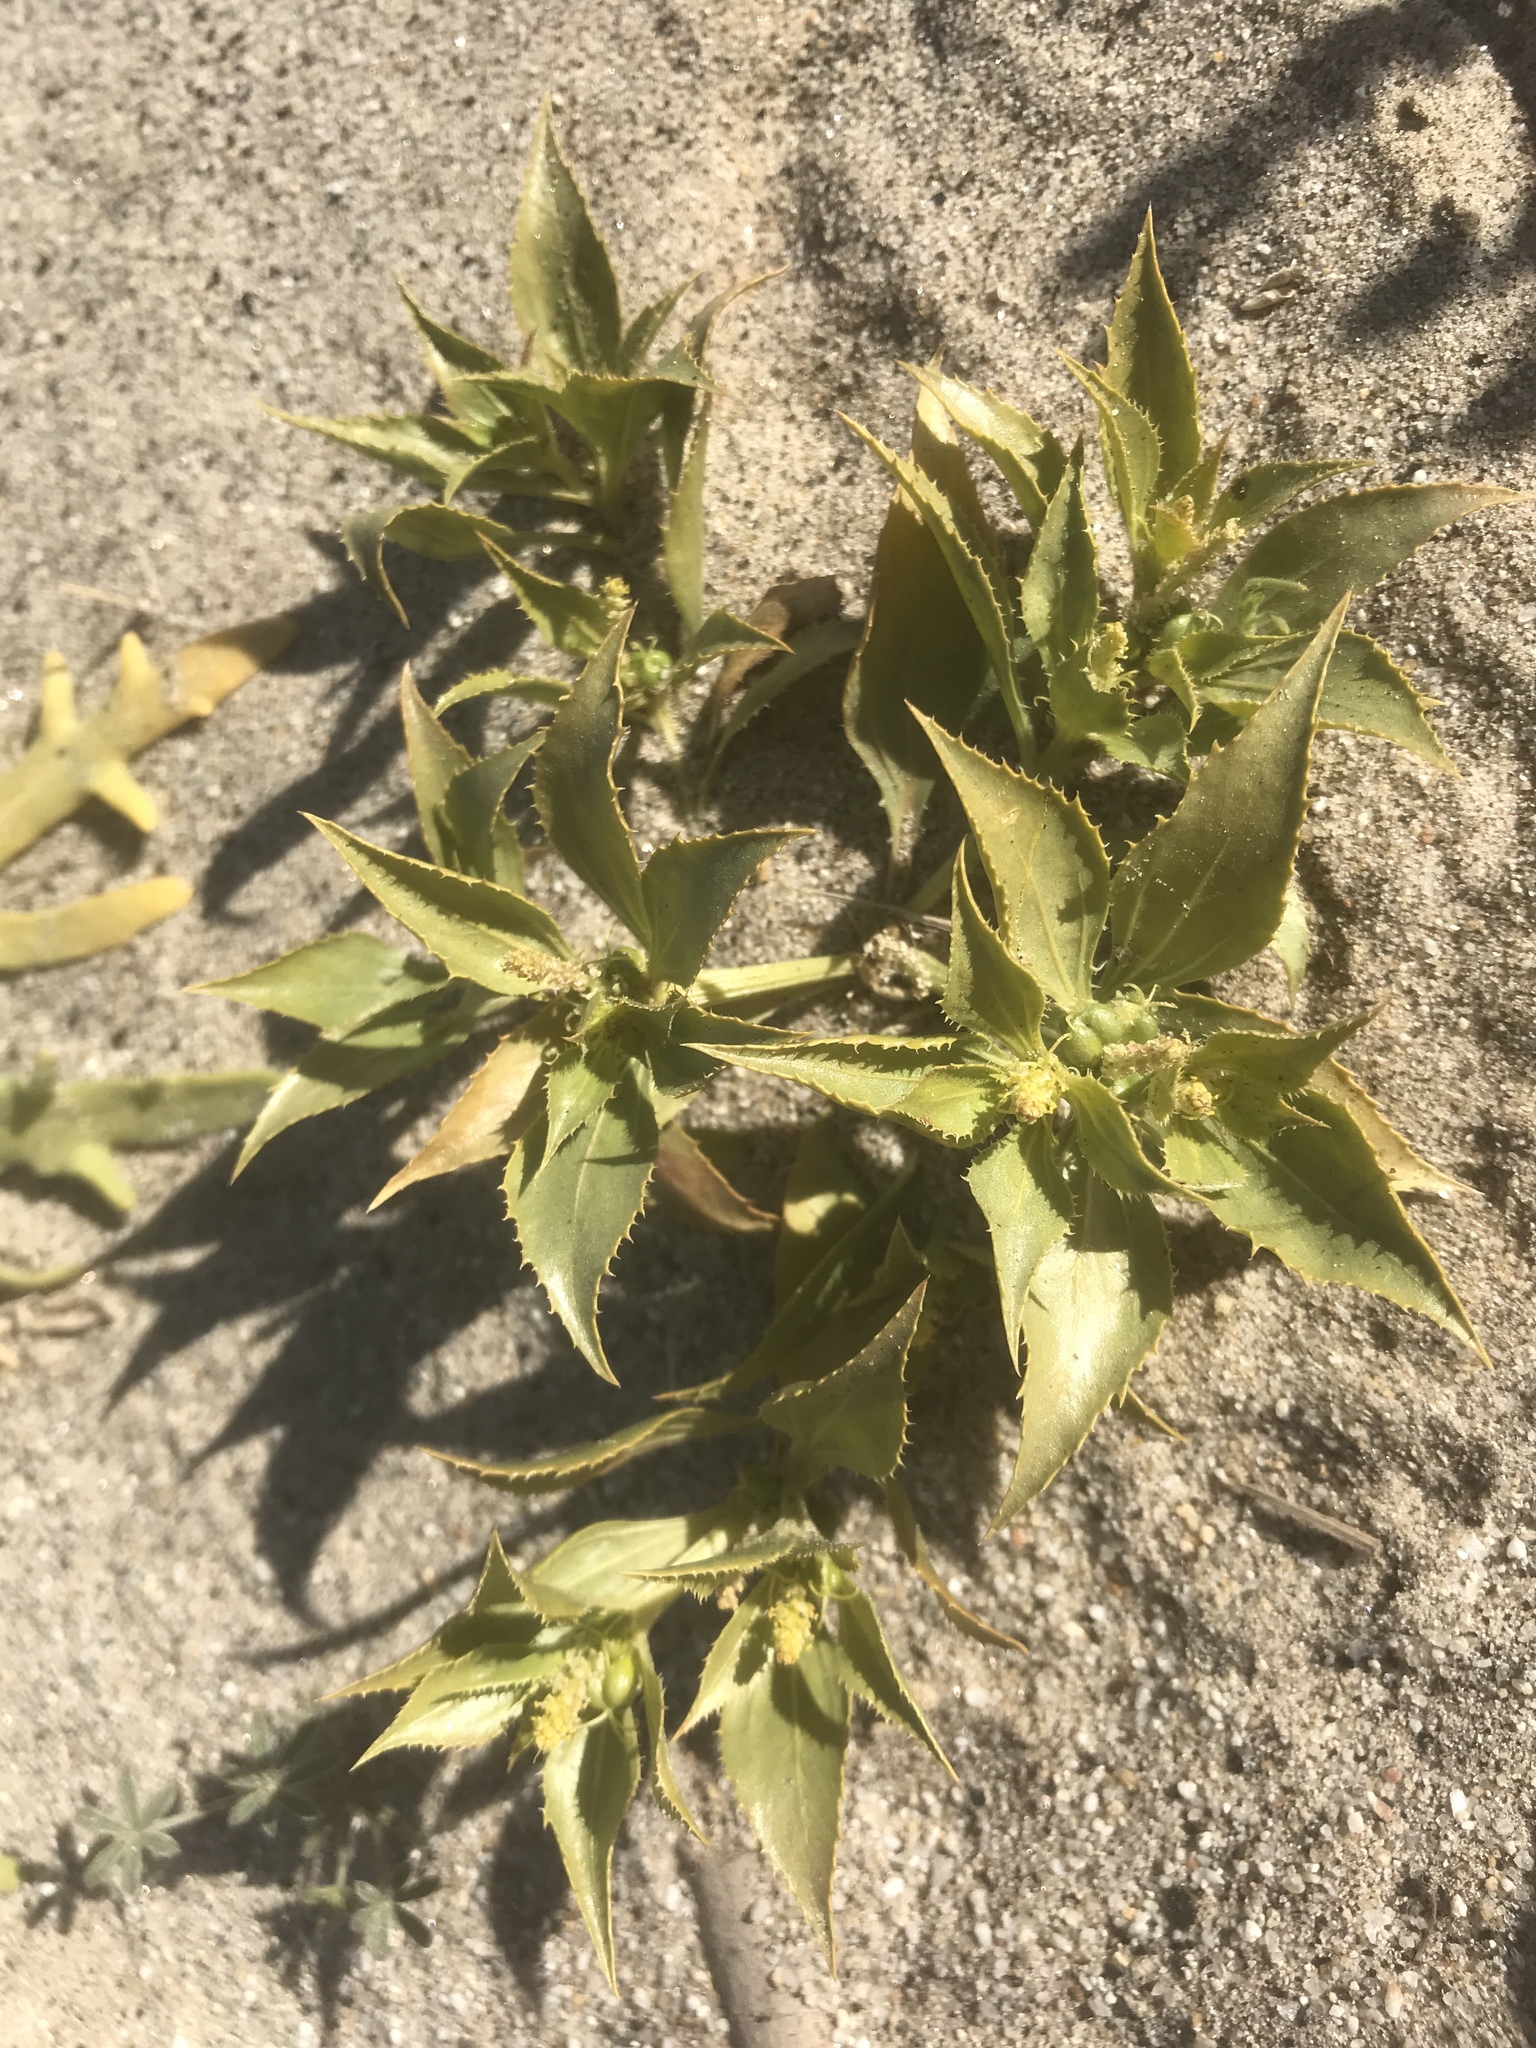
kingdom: Plantae
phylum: Tracheophyta
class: Magnoliopsida
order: Malpighiales
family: Euphorbiaceae
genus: Stillingia
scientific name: Stillingia spinulosa
